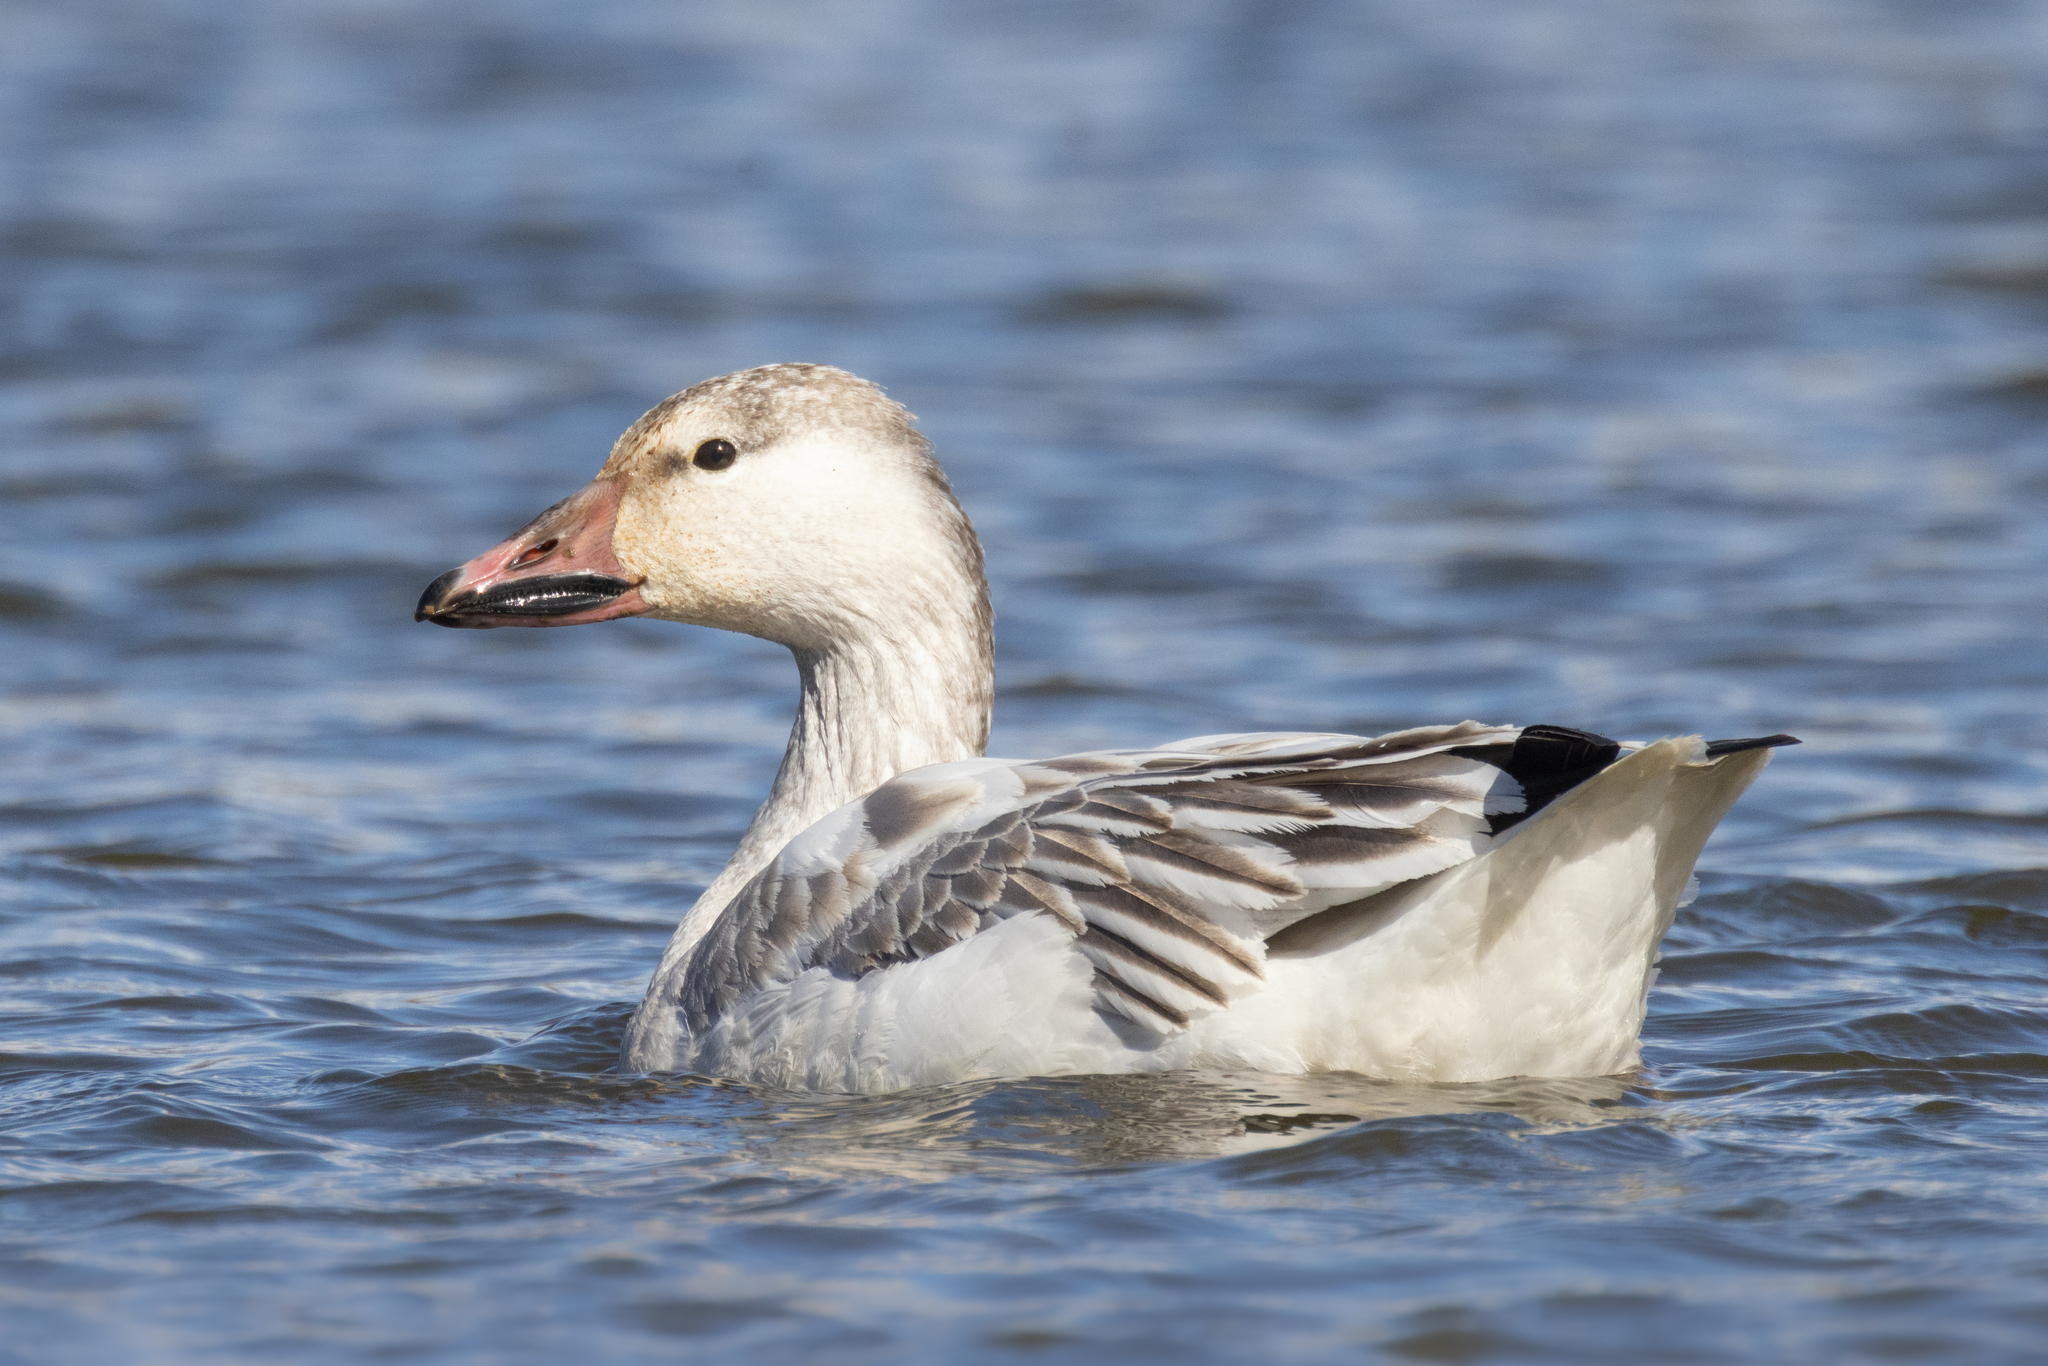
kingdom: Animalia
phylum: Chordata
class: Aves
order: Anseriformes
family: Anatidae
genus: Anser
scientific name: Anser caerulescens
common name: Snow goose
